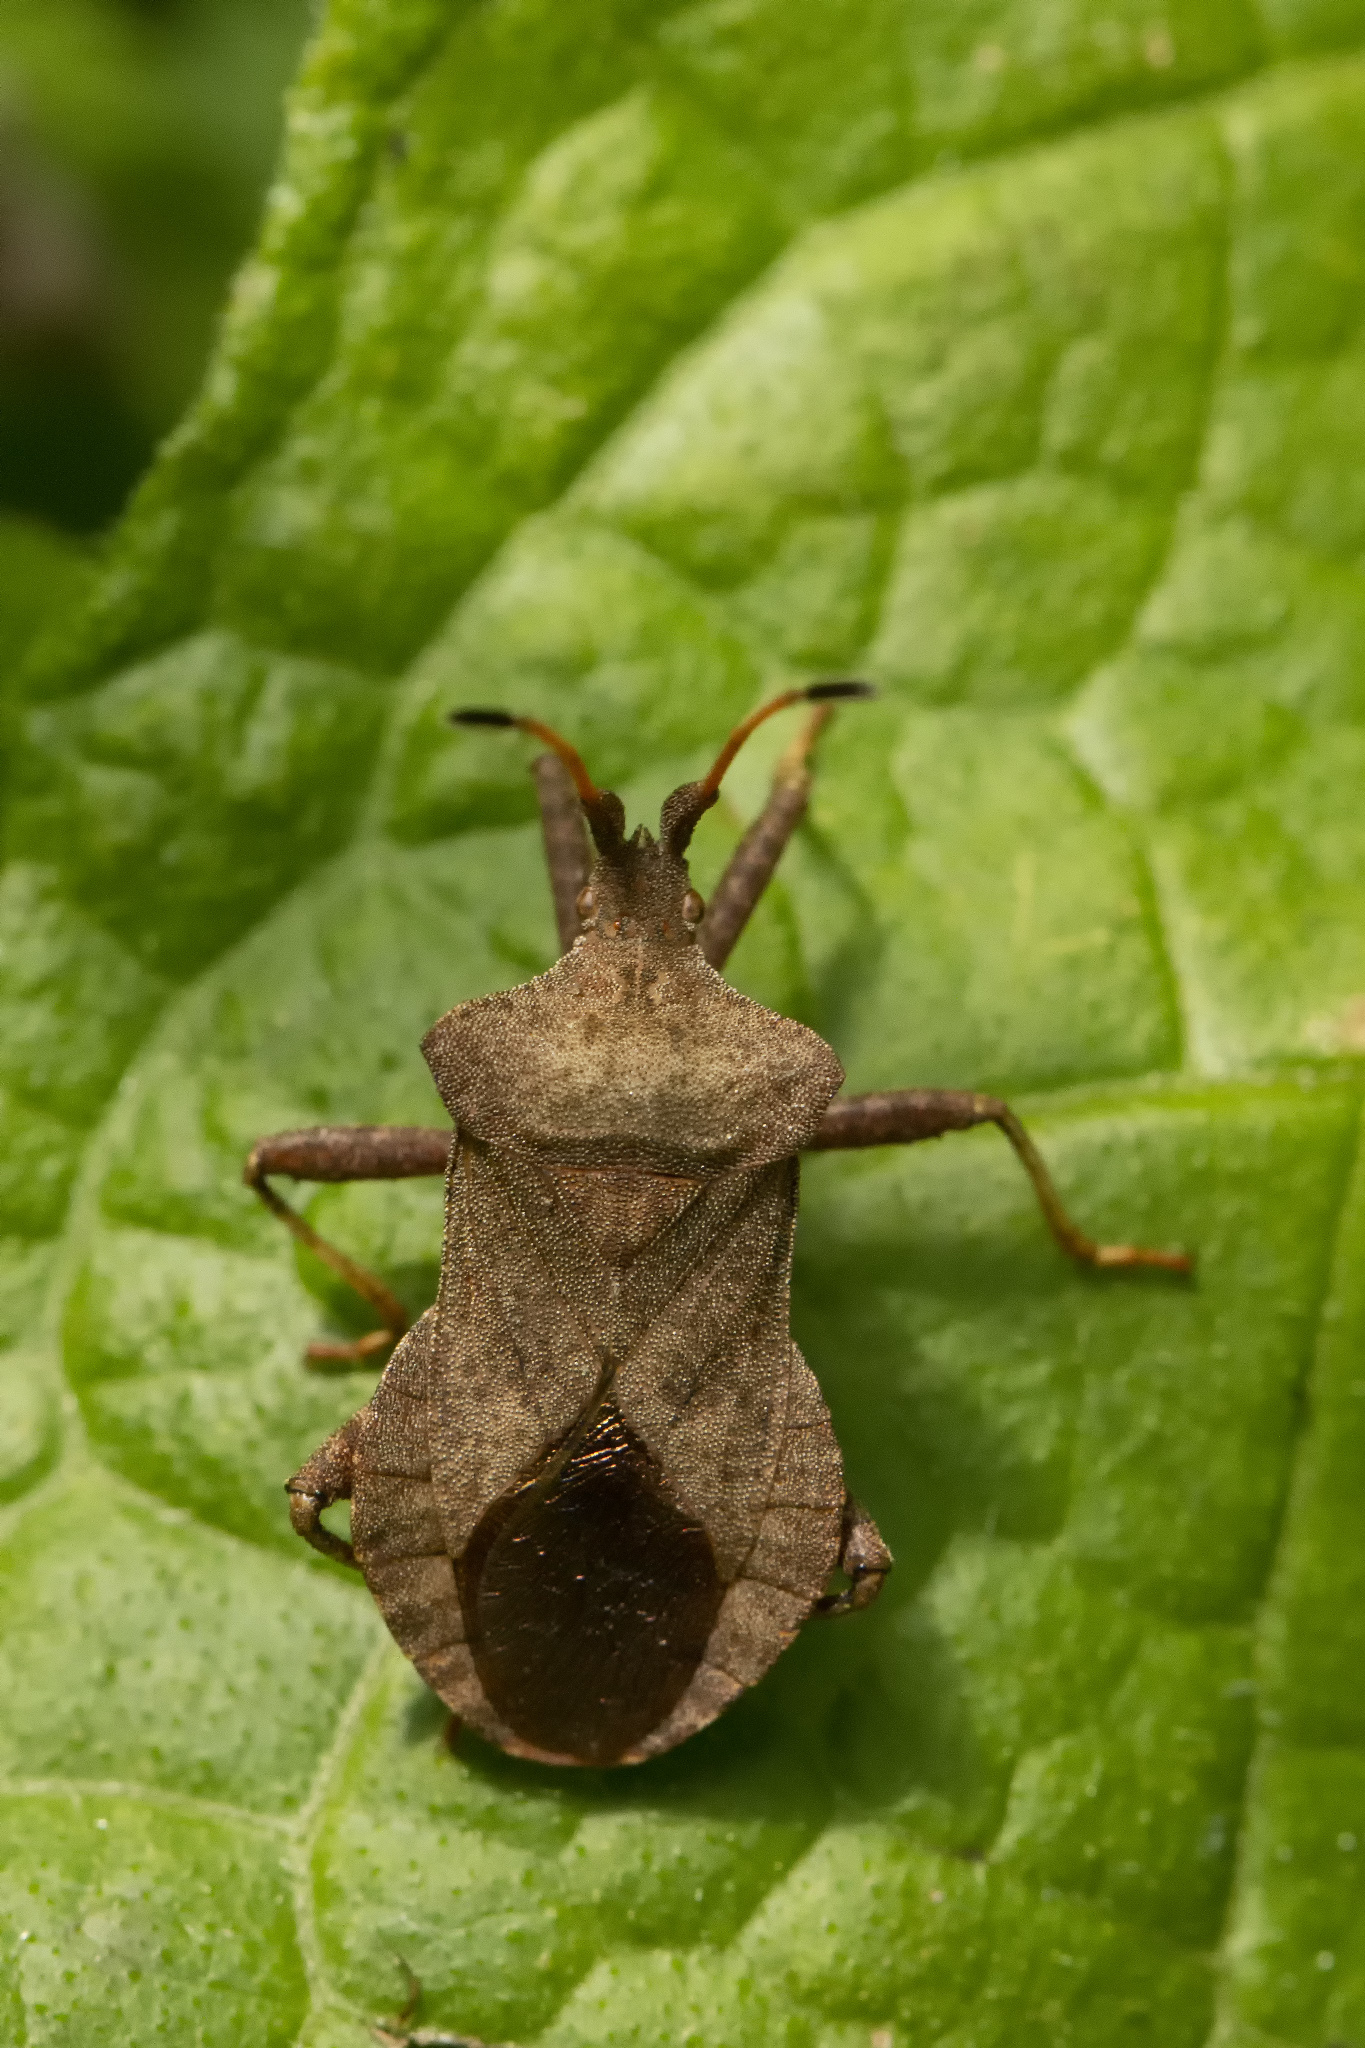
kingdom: Animalia
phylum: Arthropoda
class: Insecta
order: Hemiptera
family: Coreidae
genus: Coreus
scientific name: Coreus marginatus
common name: Dock bug
